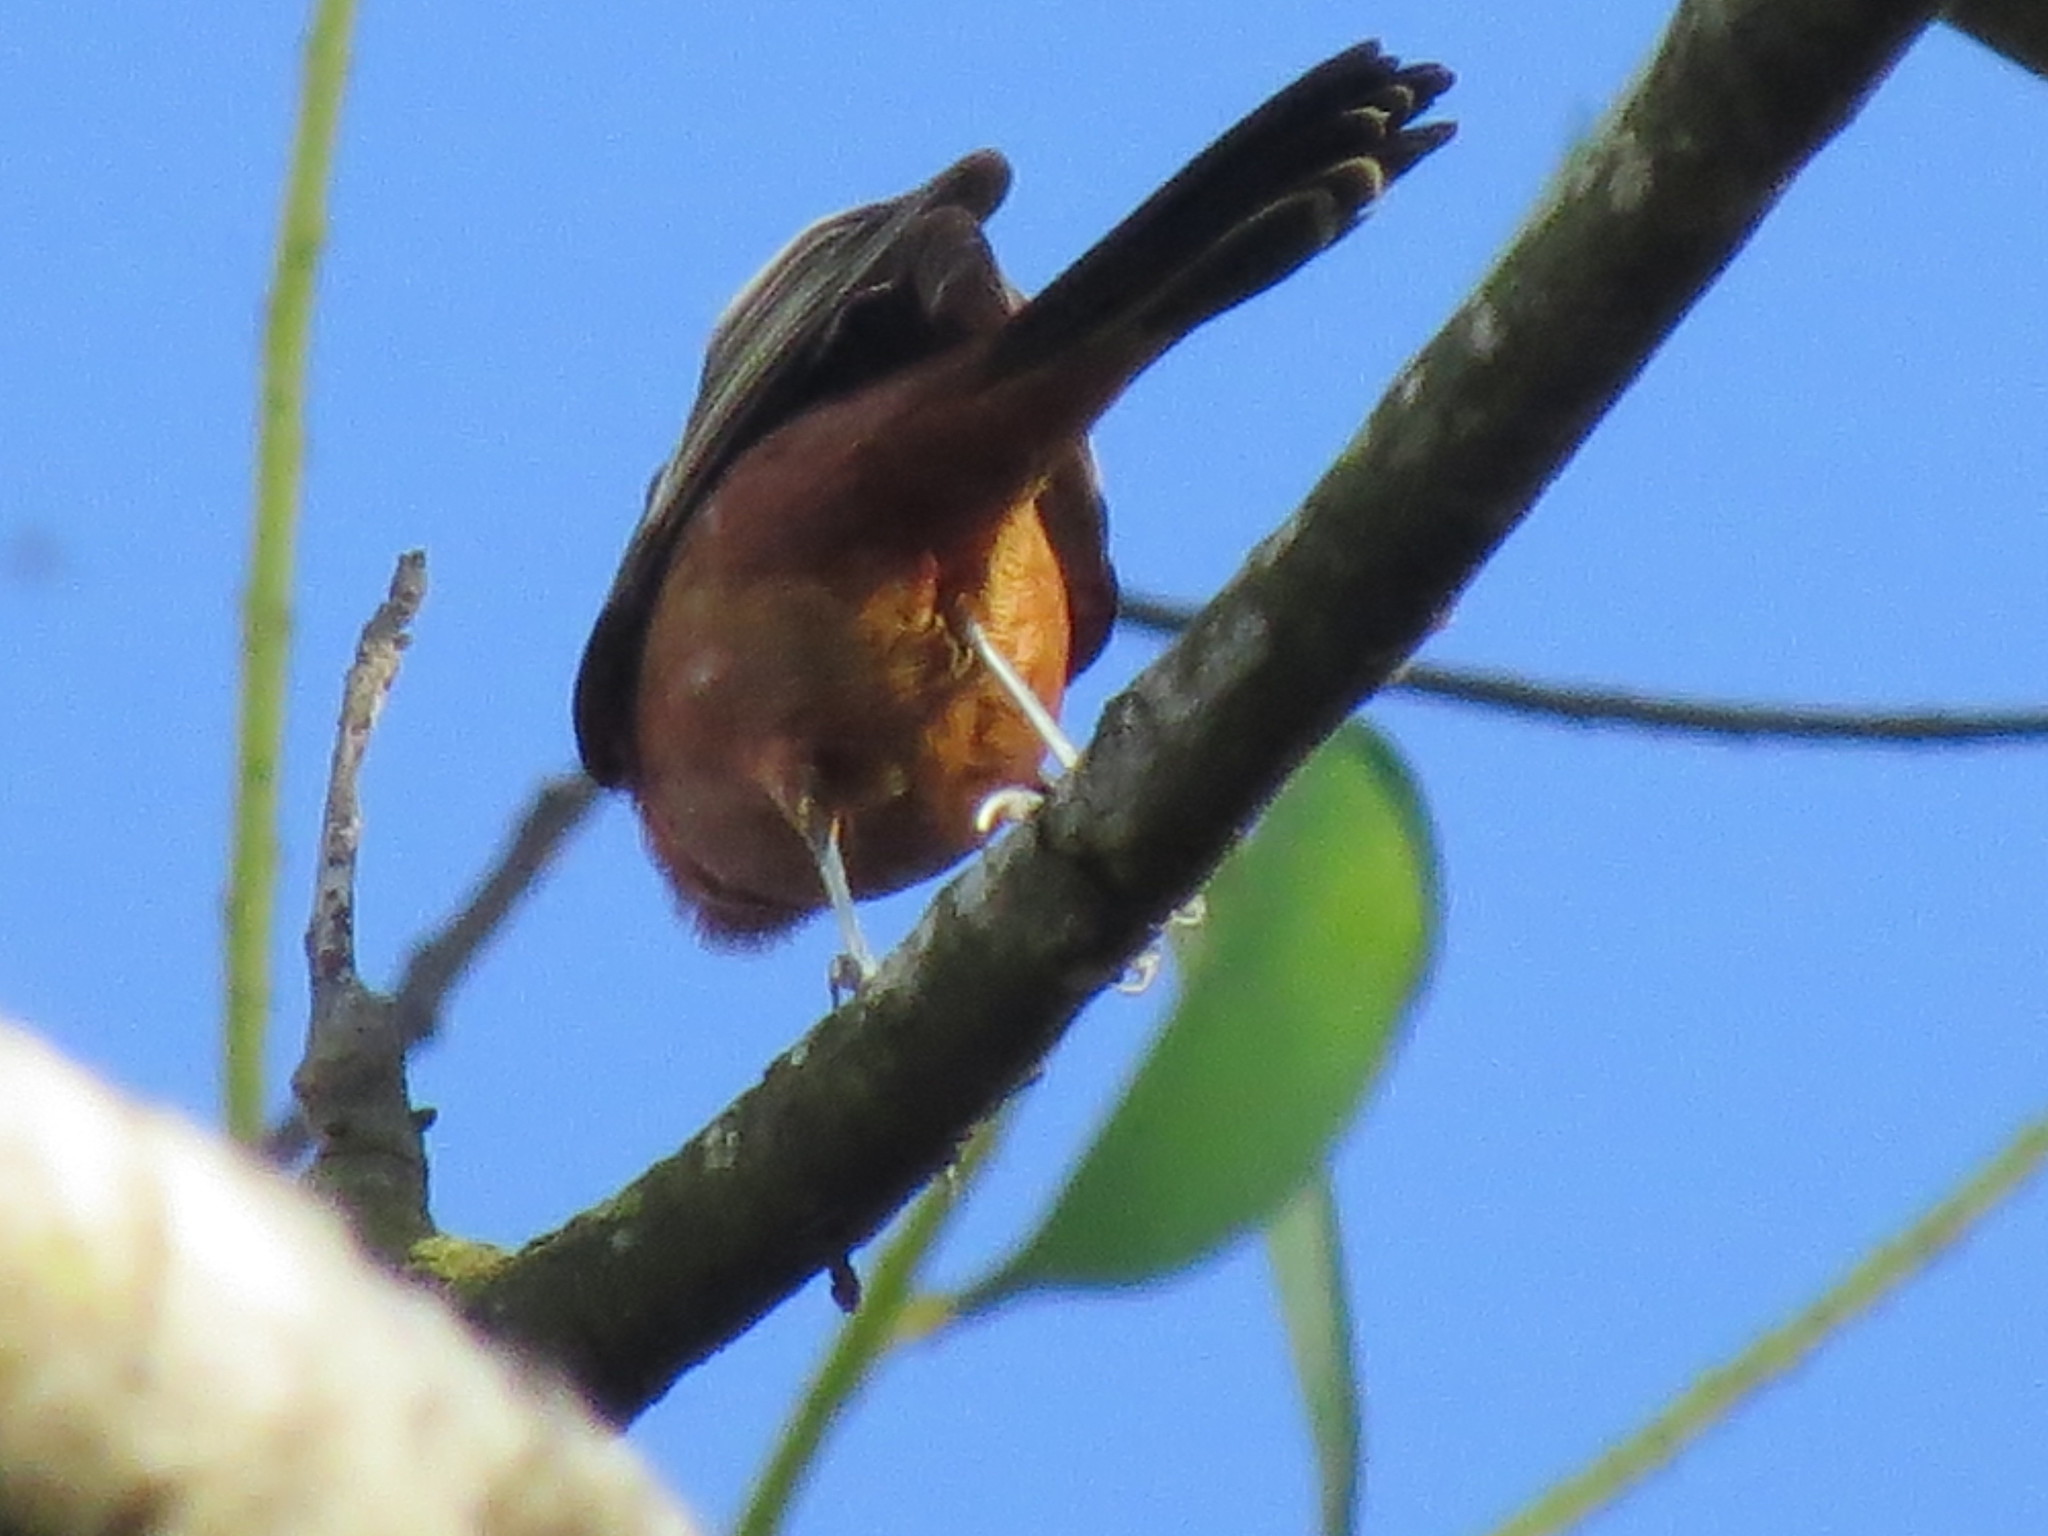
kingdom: Animalia
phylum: Chordata
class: Aves
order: Passeriformes
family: Icteridae
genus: Icterus
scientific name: Icterus spurius
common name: Orchard oriole
